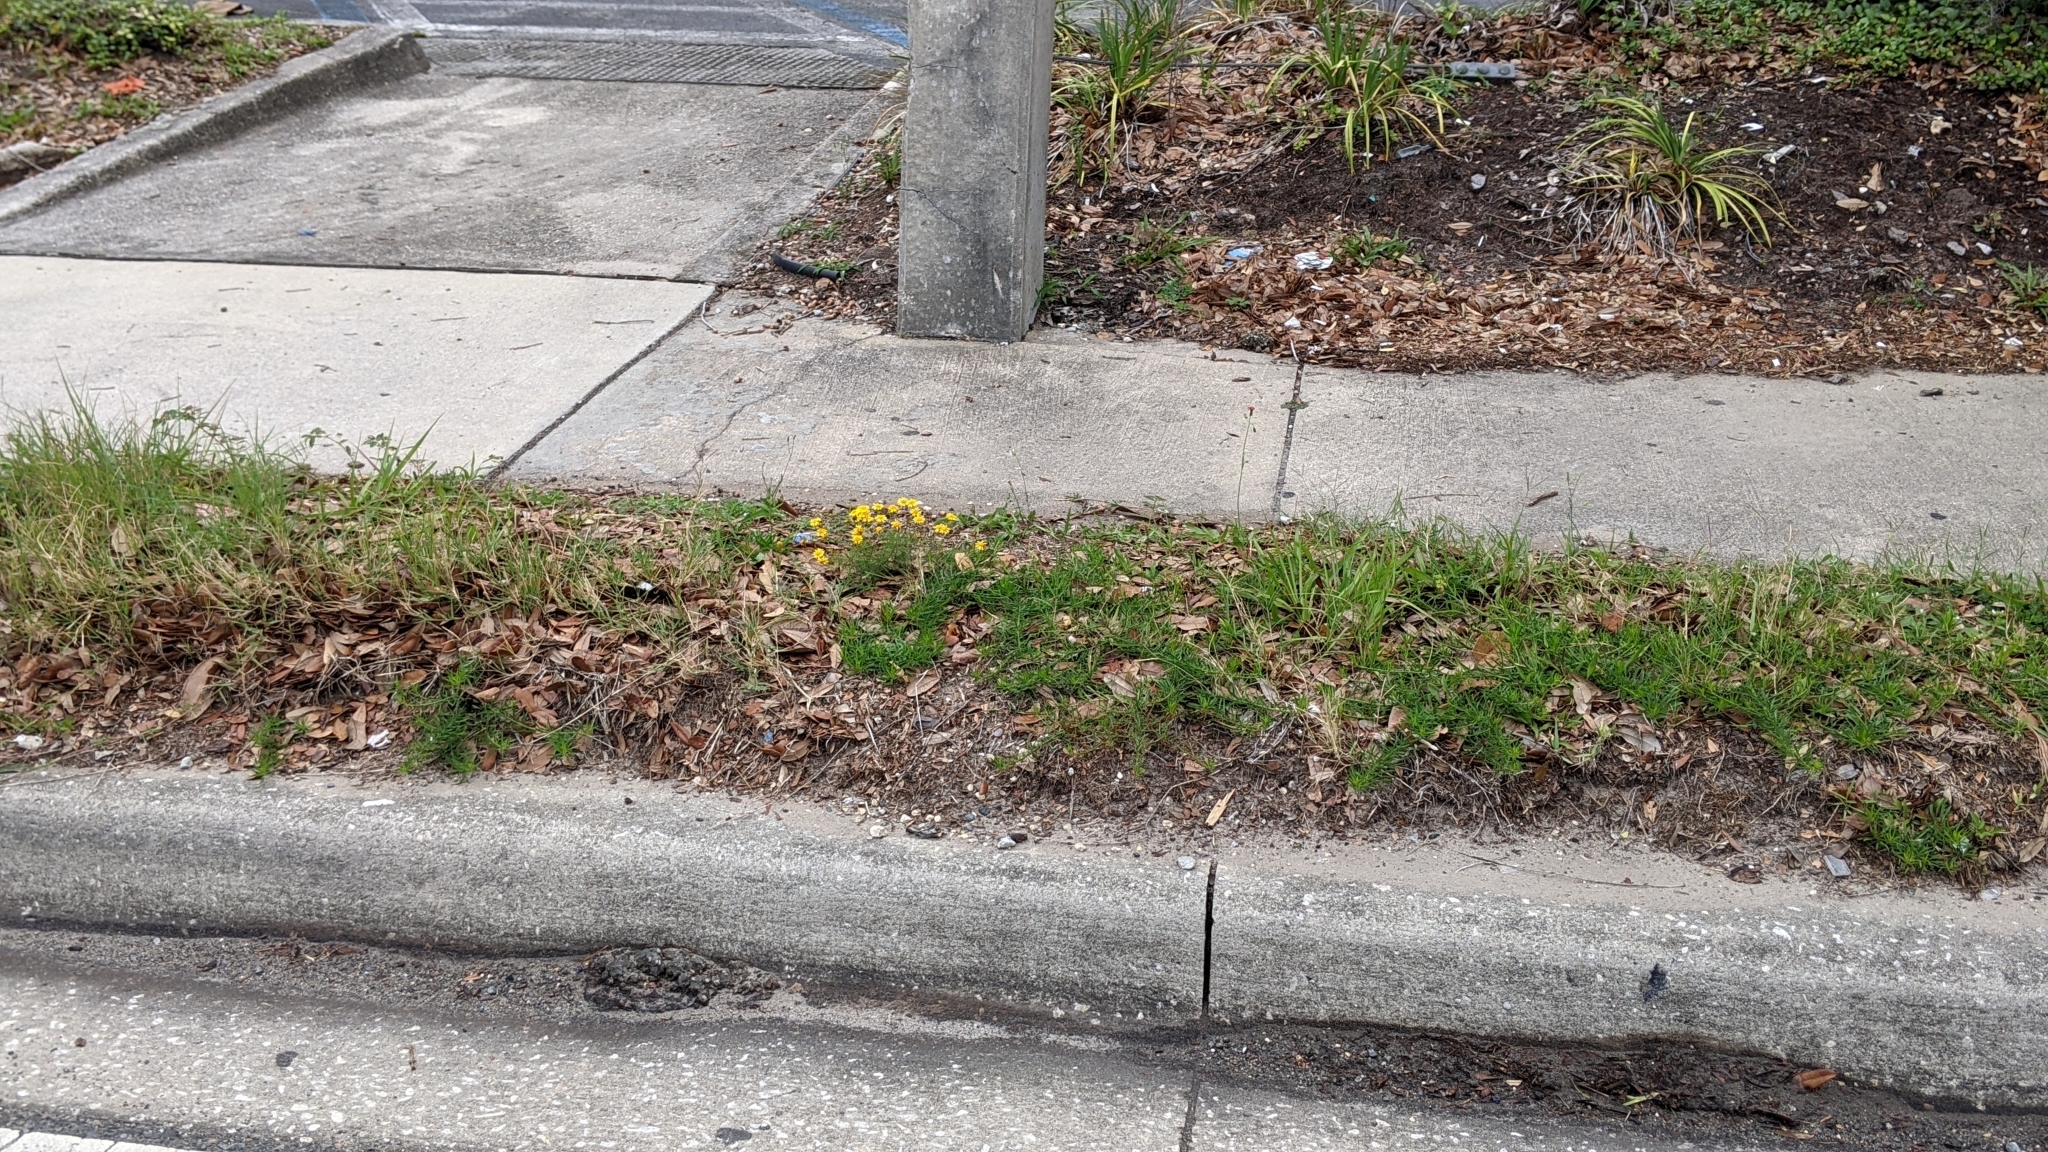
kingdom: Plantae
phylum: Tracheophyta
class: Magnoliopsida
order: Asterales
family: Asteraceae
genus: Thymophylla
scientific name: Thymophylla tenuiloba
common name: Dahlberg's daisy
